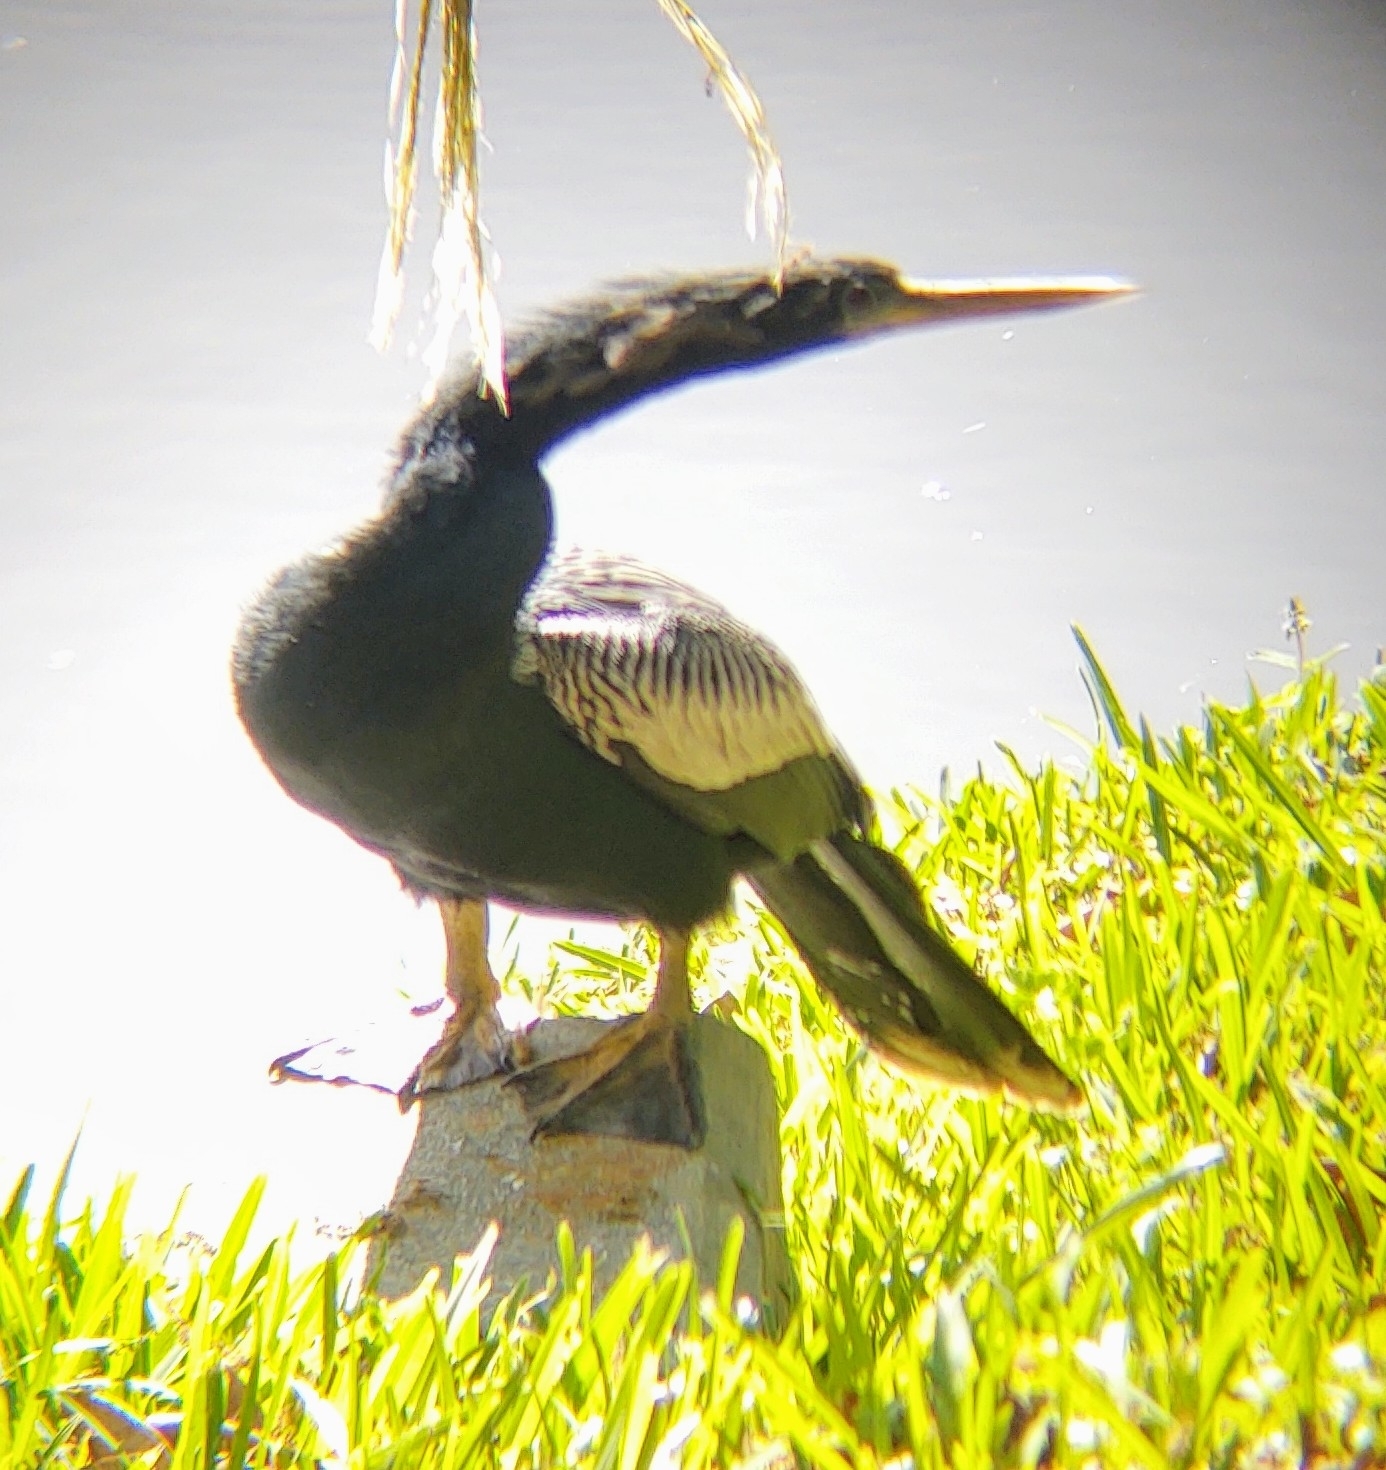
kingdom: Animalia
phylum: Chordata
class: Aves
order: Suliformes
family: Anhingidae
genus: Anhinga
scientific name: Anhinga anhinga
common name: Anhinga
